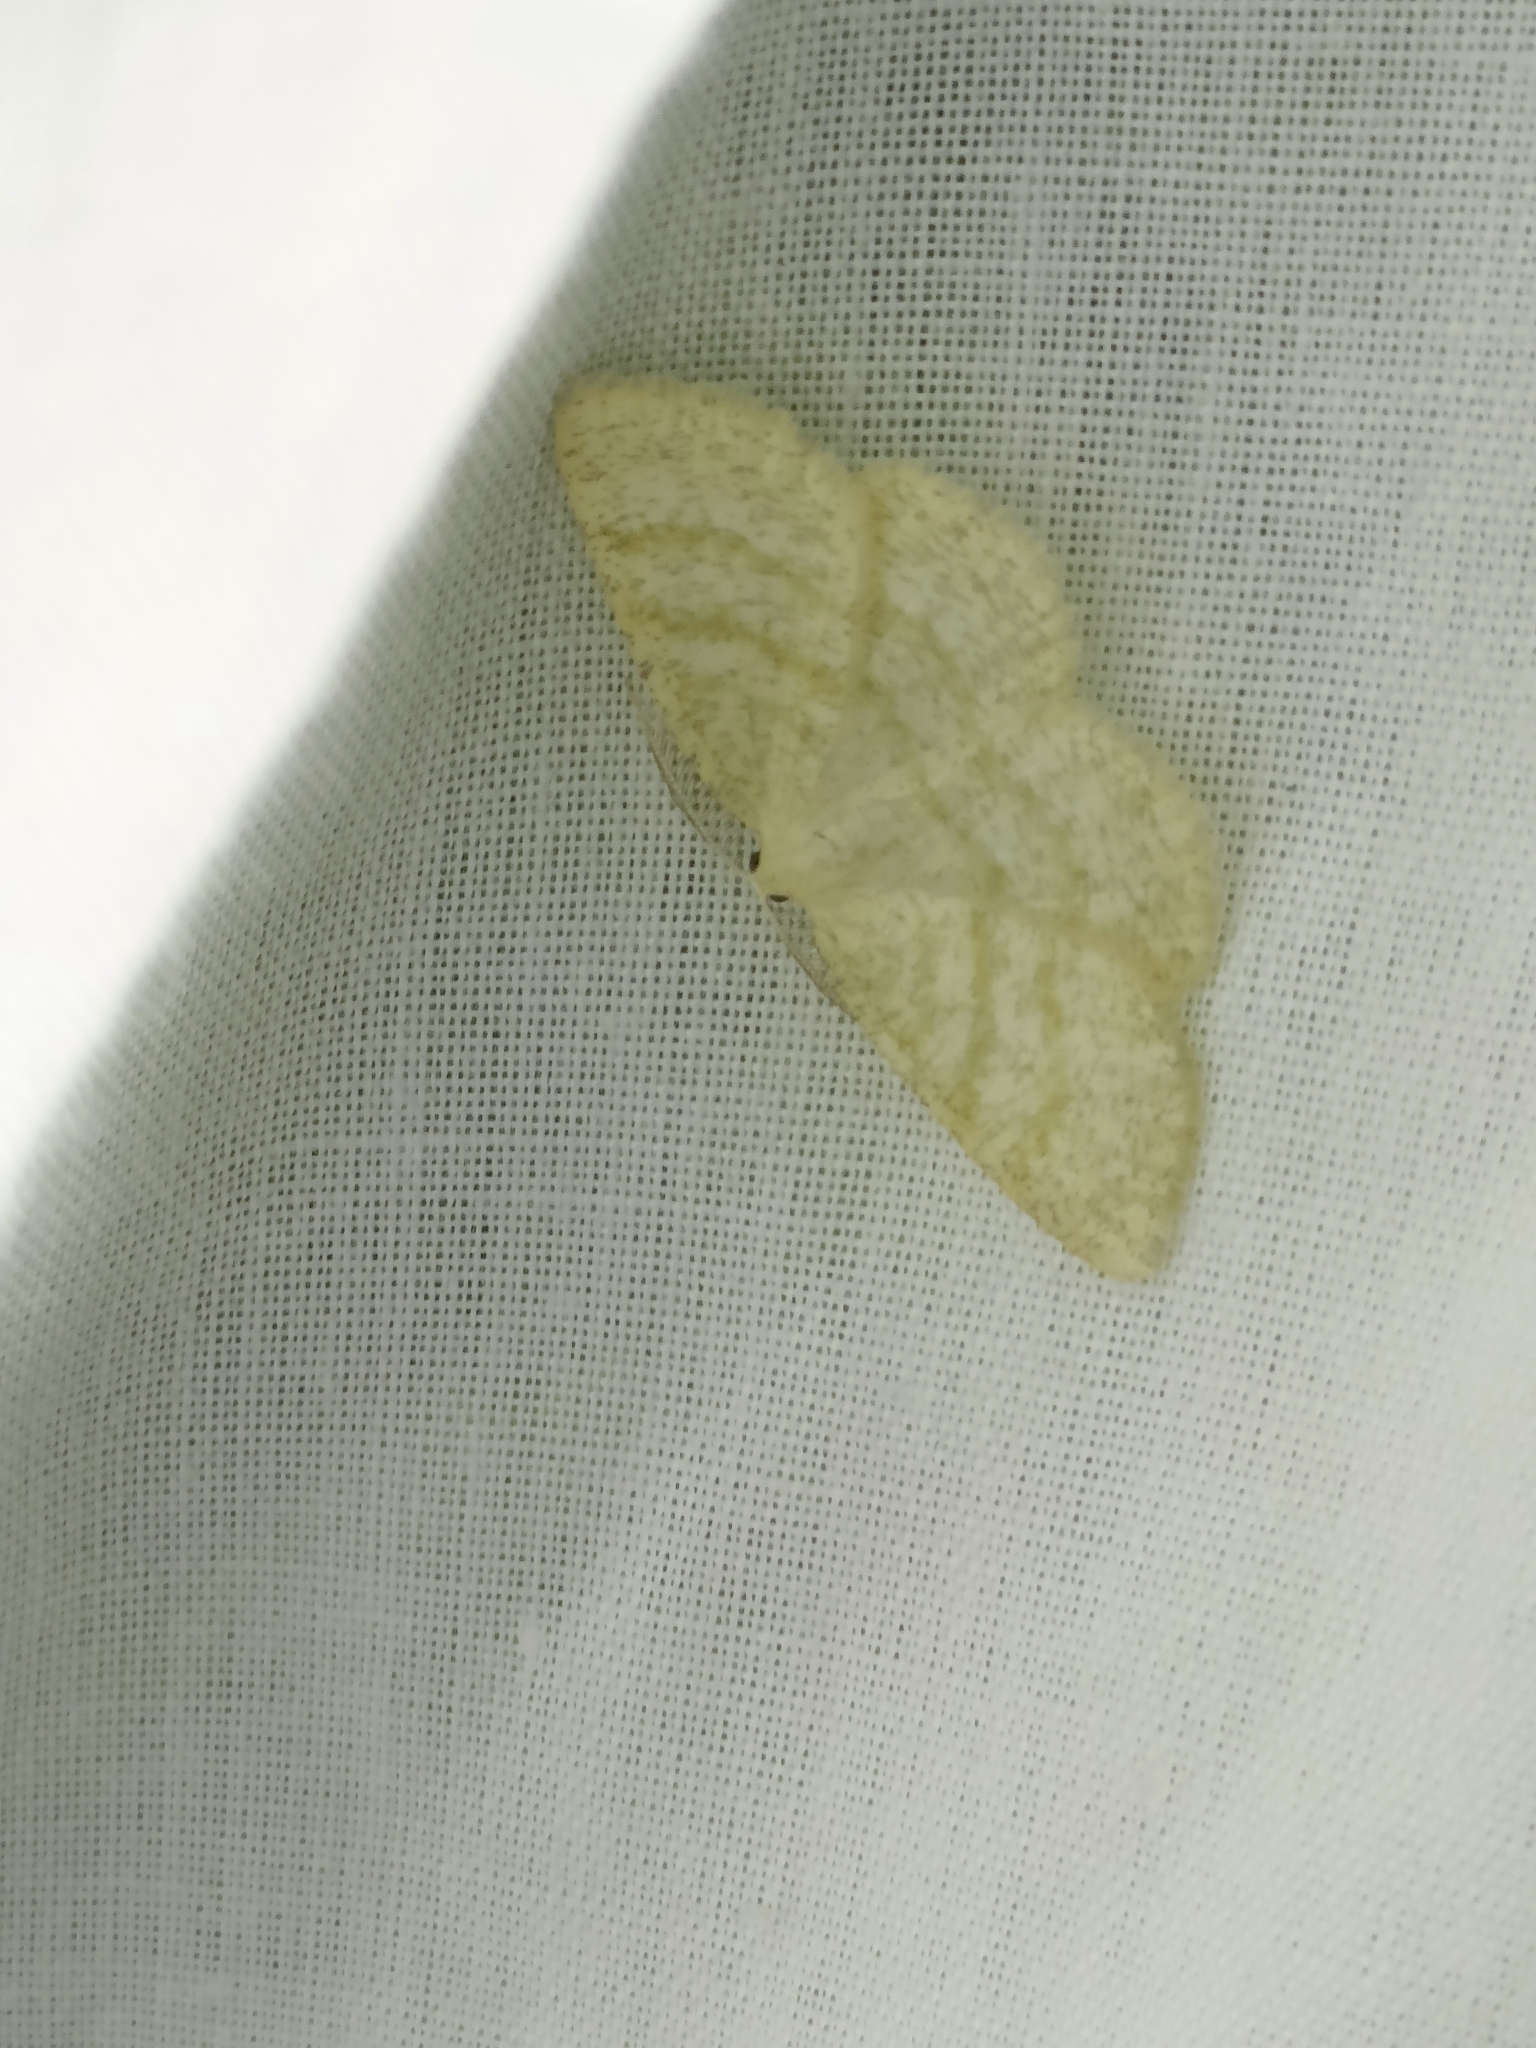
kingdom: Animalia
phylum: Arthropoda
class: Insecta
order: Lepidoptera
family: Geometridae
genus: Cabera
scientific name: Cabera exanthemata
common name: Common wave
